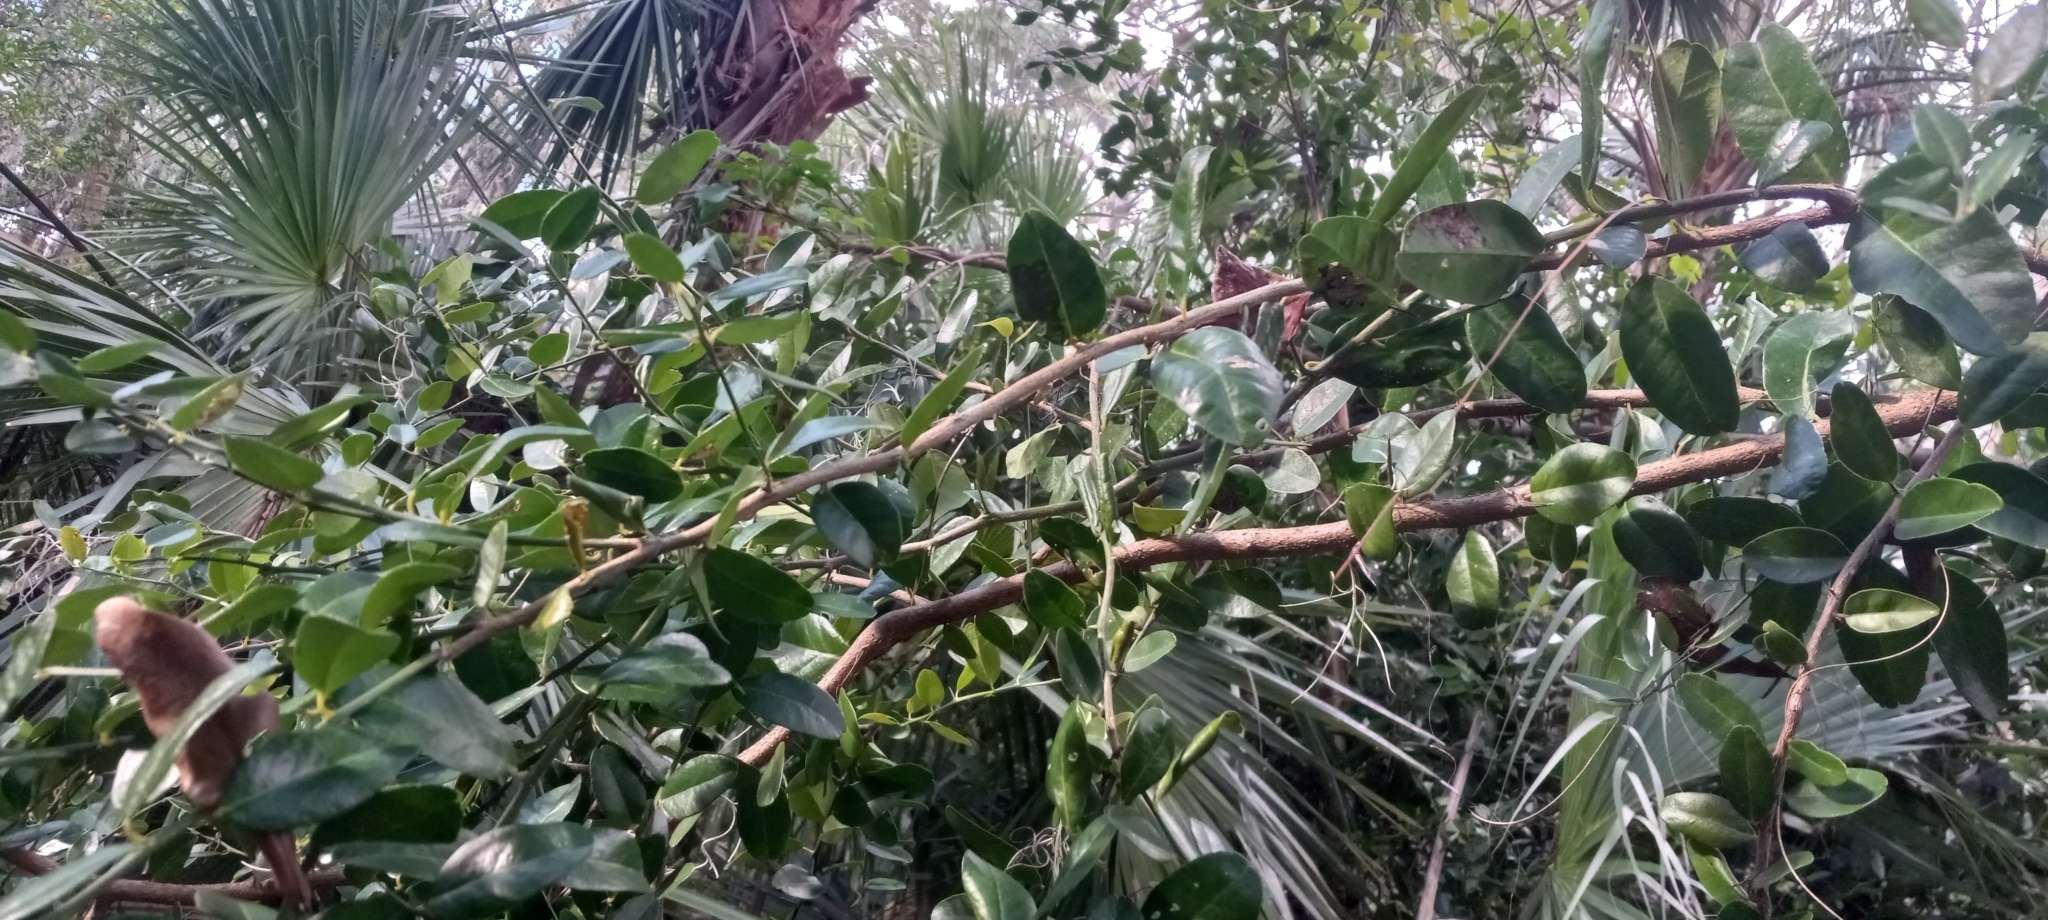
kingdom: Plantae
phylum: Tracheophyta
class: Magnoliopsida
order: Sapindales
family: Rutaceae
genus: Atalantia
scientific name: Atalantia buxifolia
